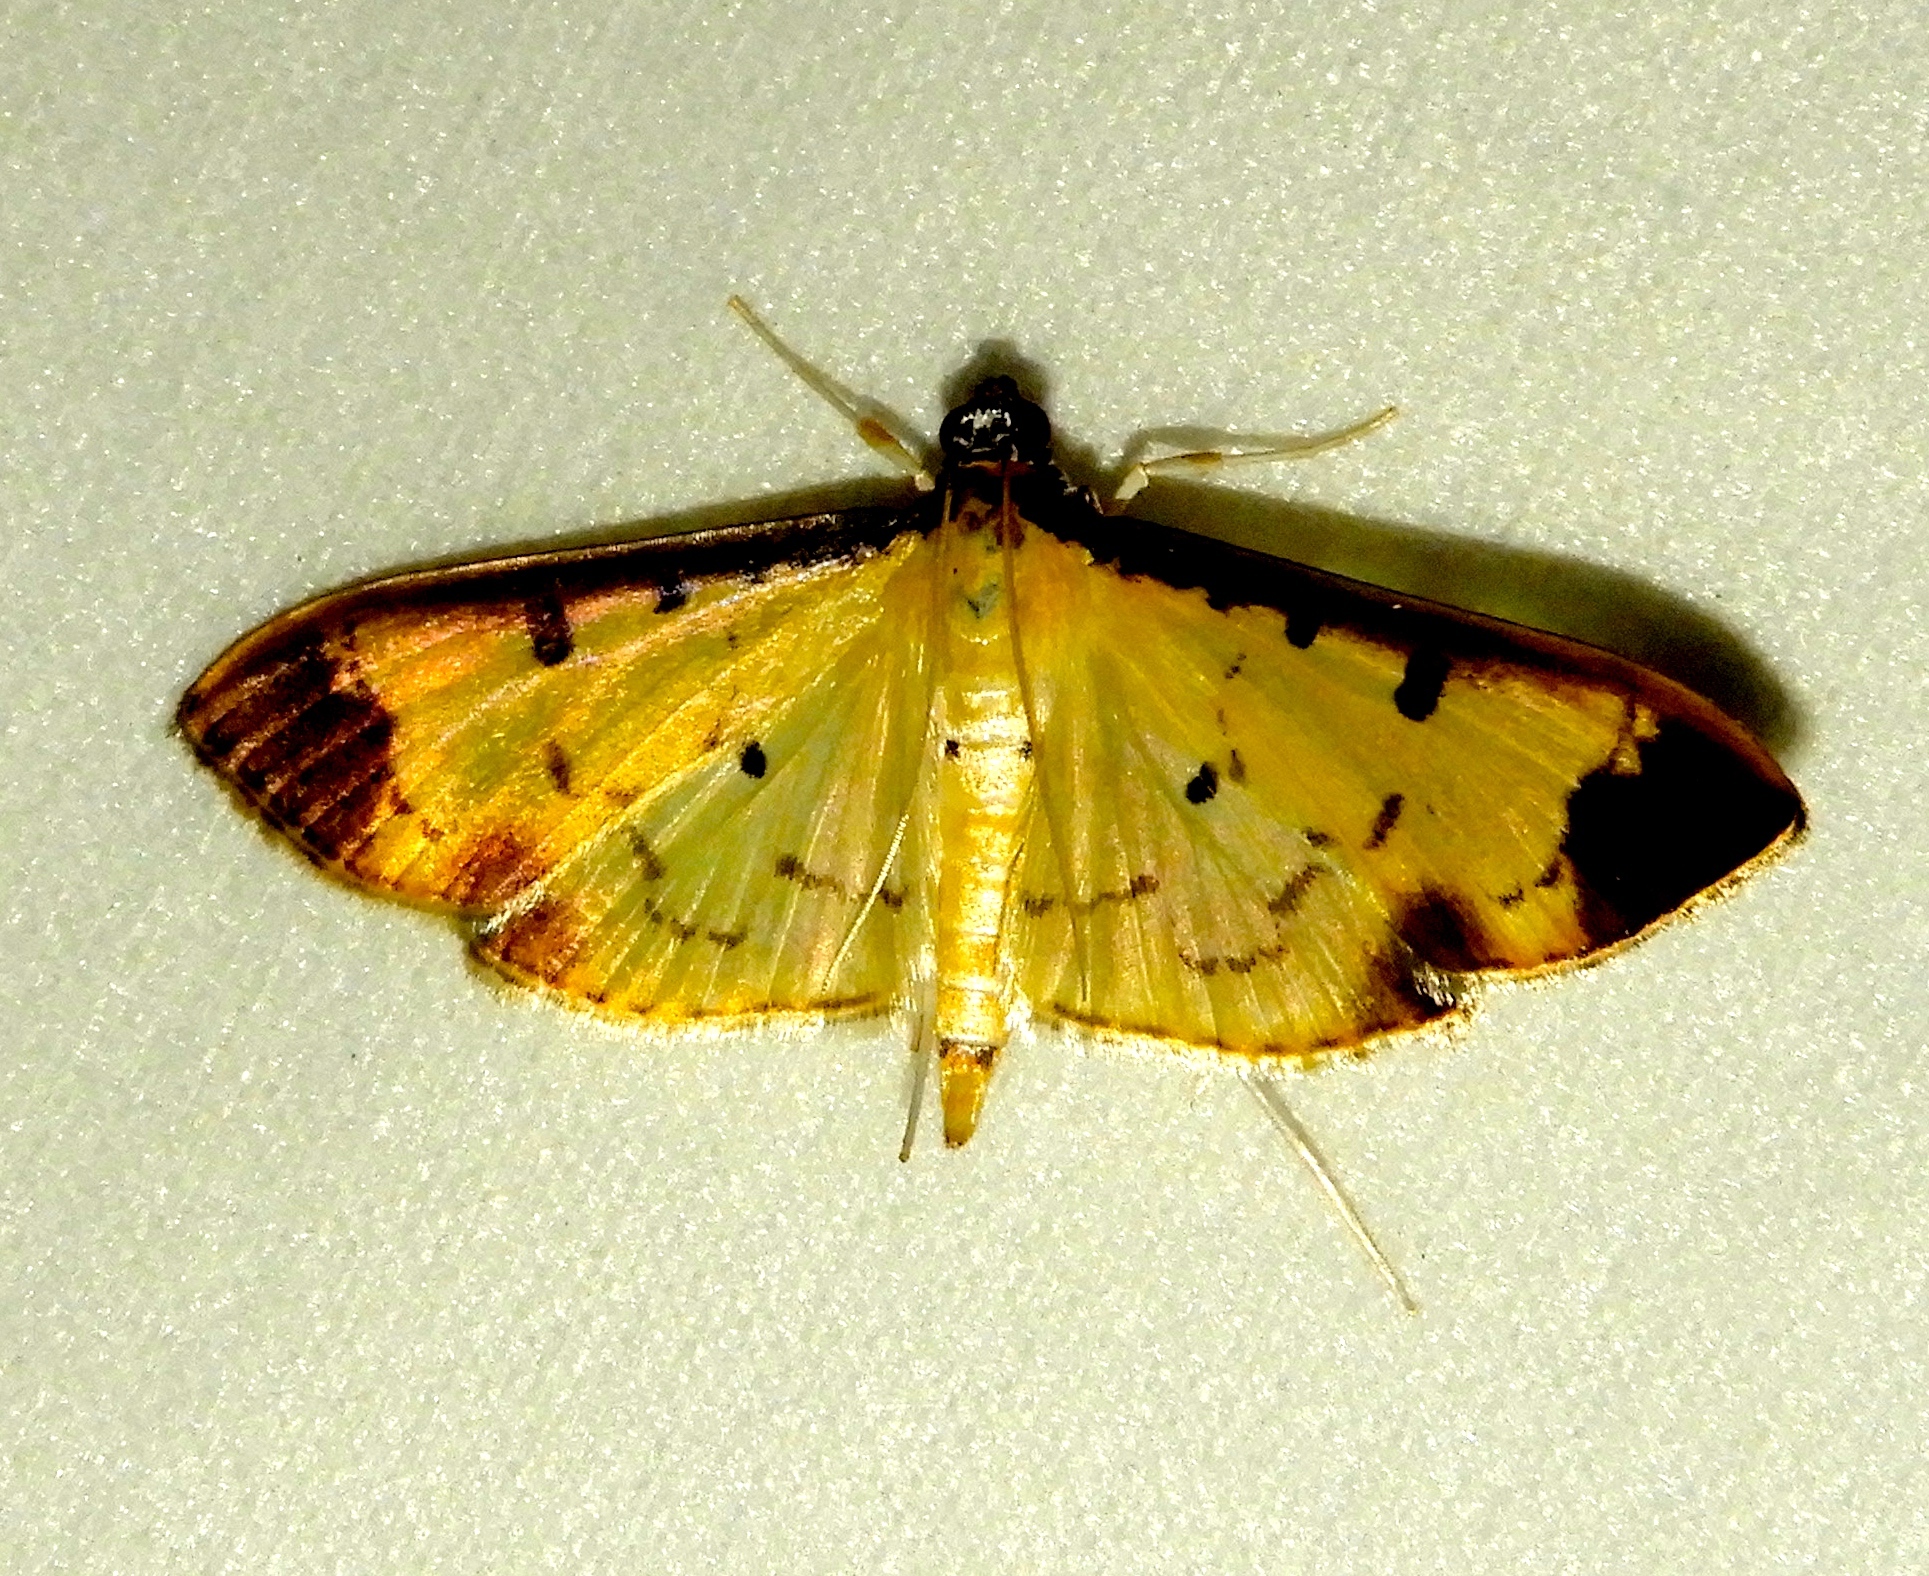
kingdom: Animalia
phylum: Arthropoda
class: Insecta
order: Lepidoptera
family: Crambidae
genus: Eulepte
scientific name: Eulepte
